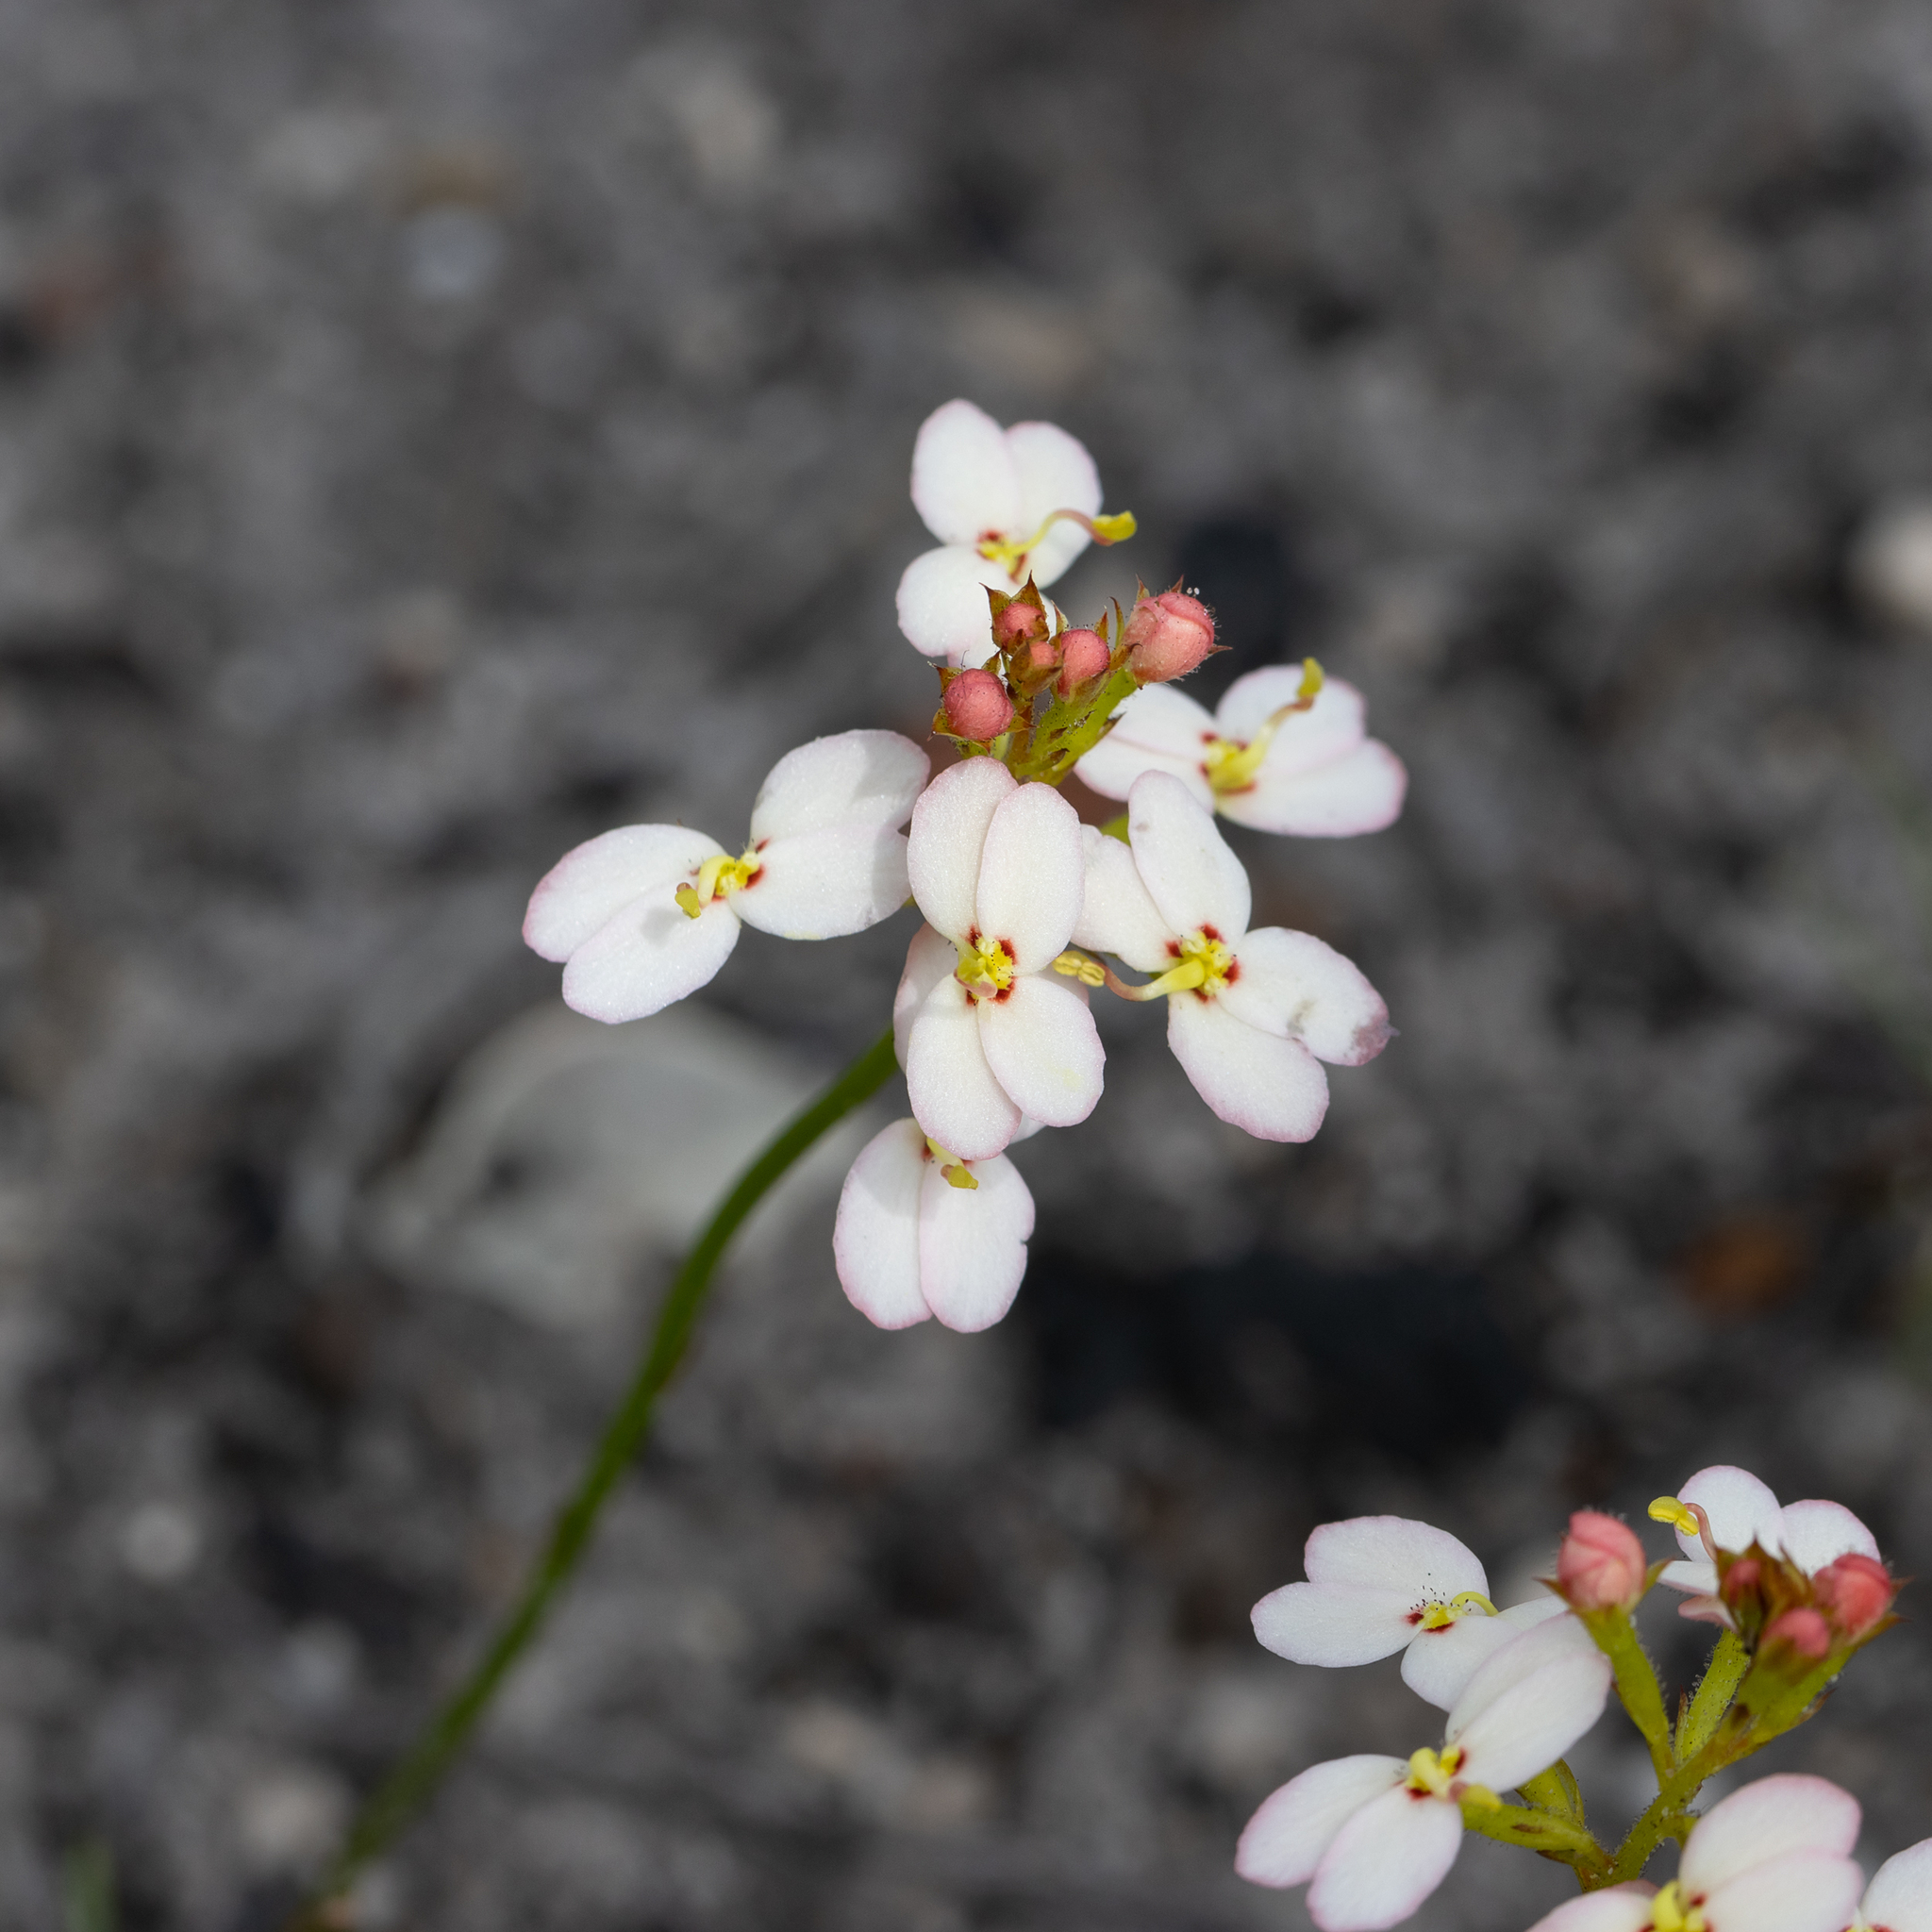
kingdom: Plantae
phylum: Tracheophyta
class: Magnoliopsida
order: Asterales
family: Stylidiaceae
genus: Stylidium
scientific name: Stylidium junceum
